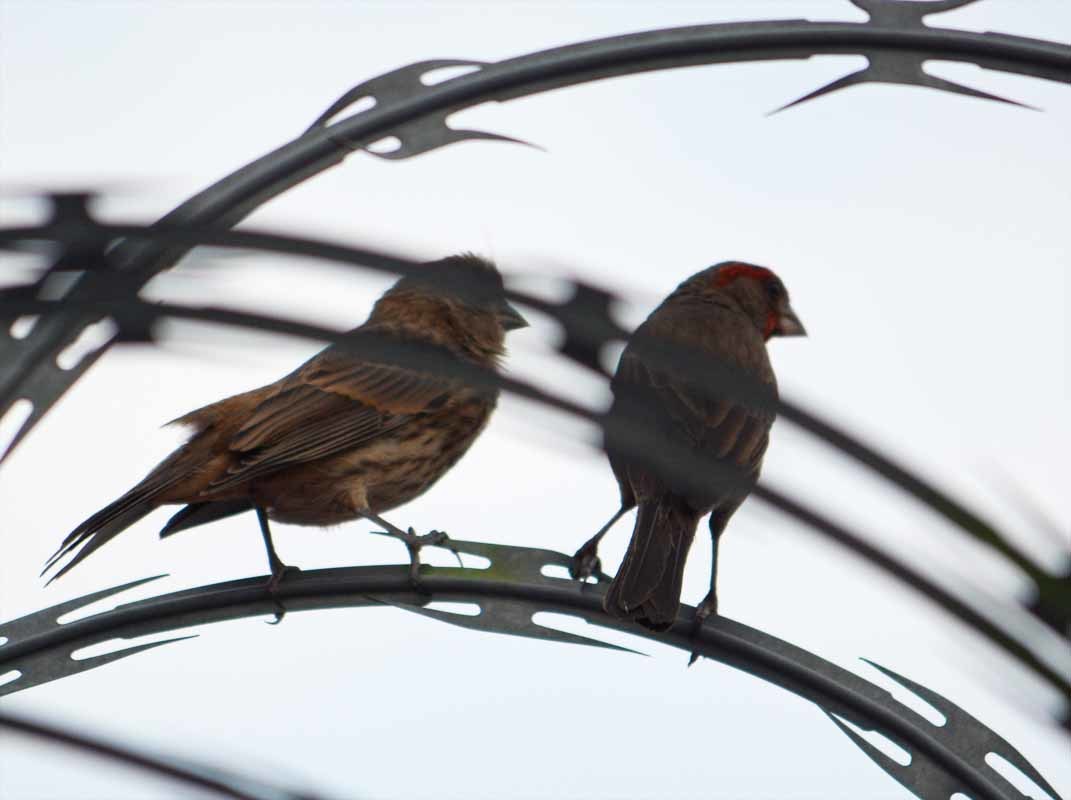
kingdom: Animalia
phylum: Chordata
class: Aves
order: Passeriformes
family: Fringillidae
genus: Haemorhous
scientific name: Haemorhous mexicanus
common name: House finch
